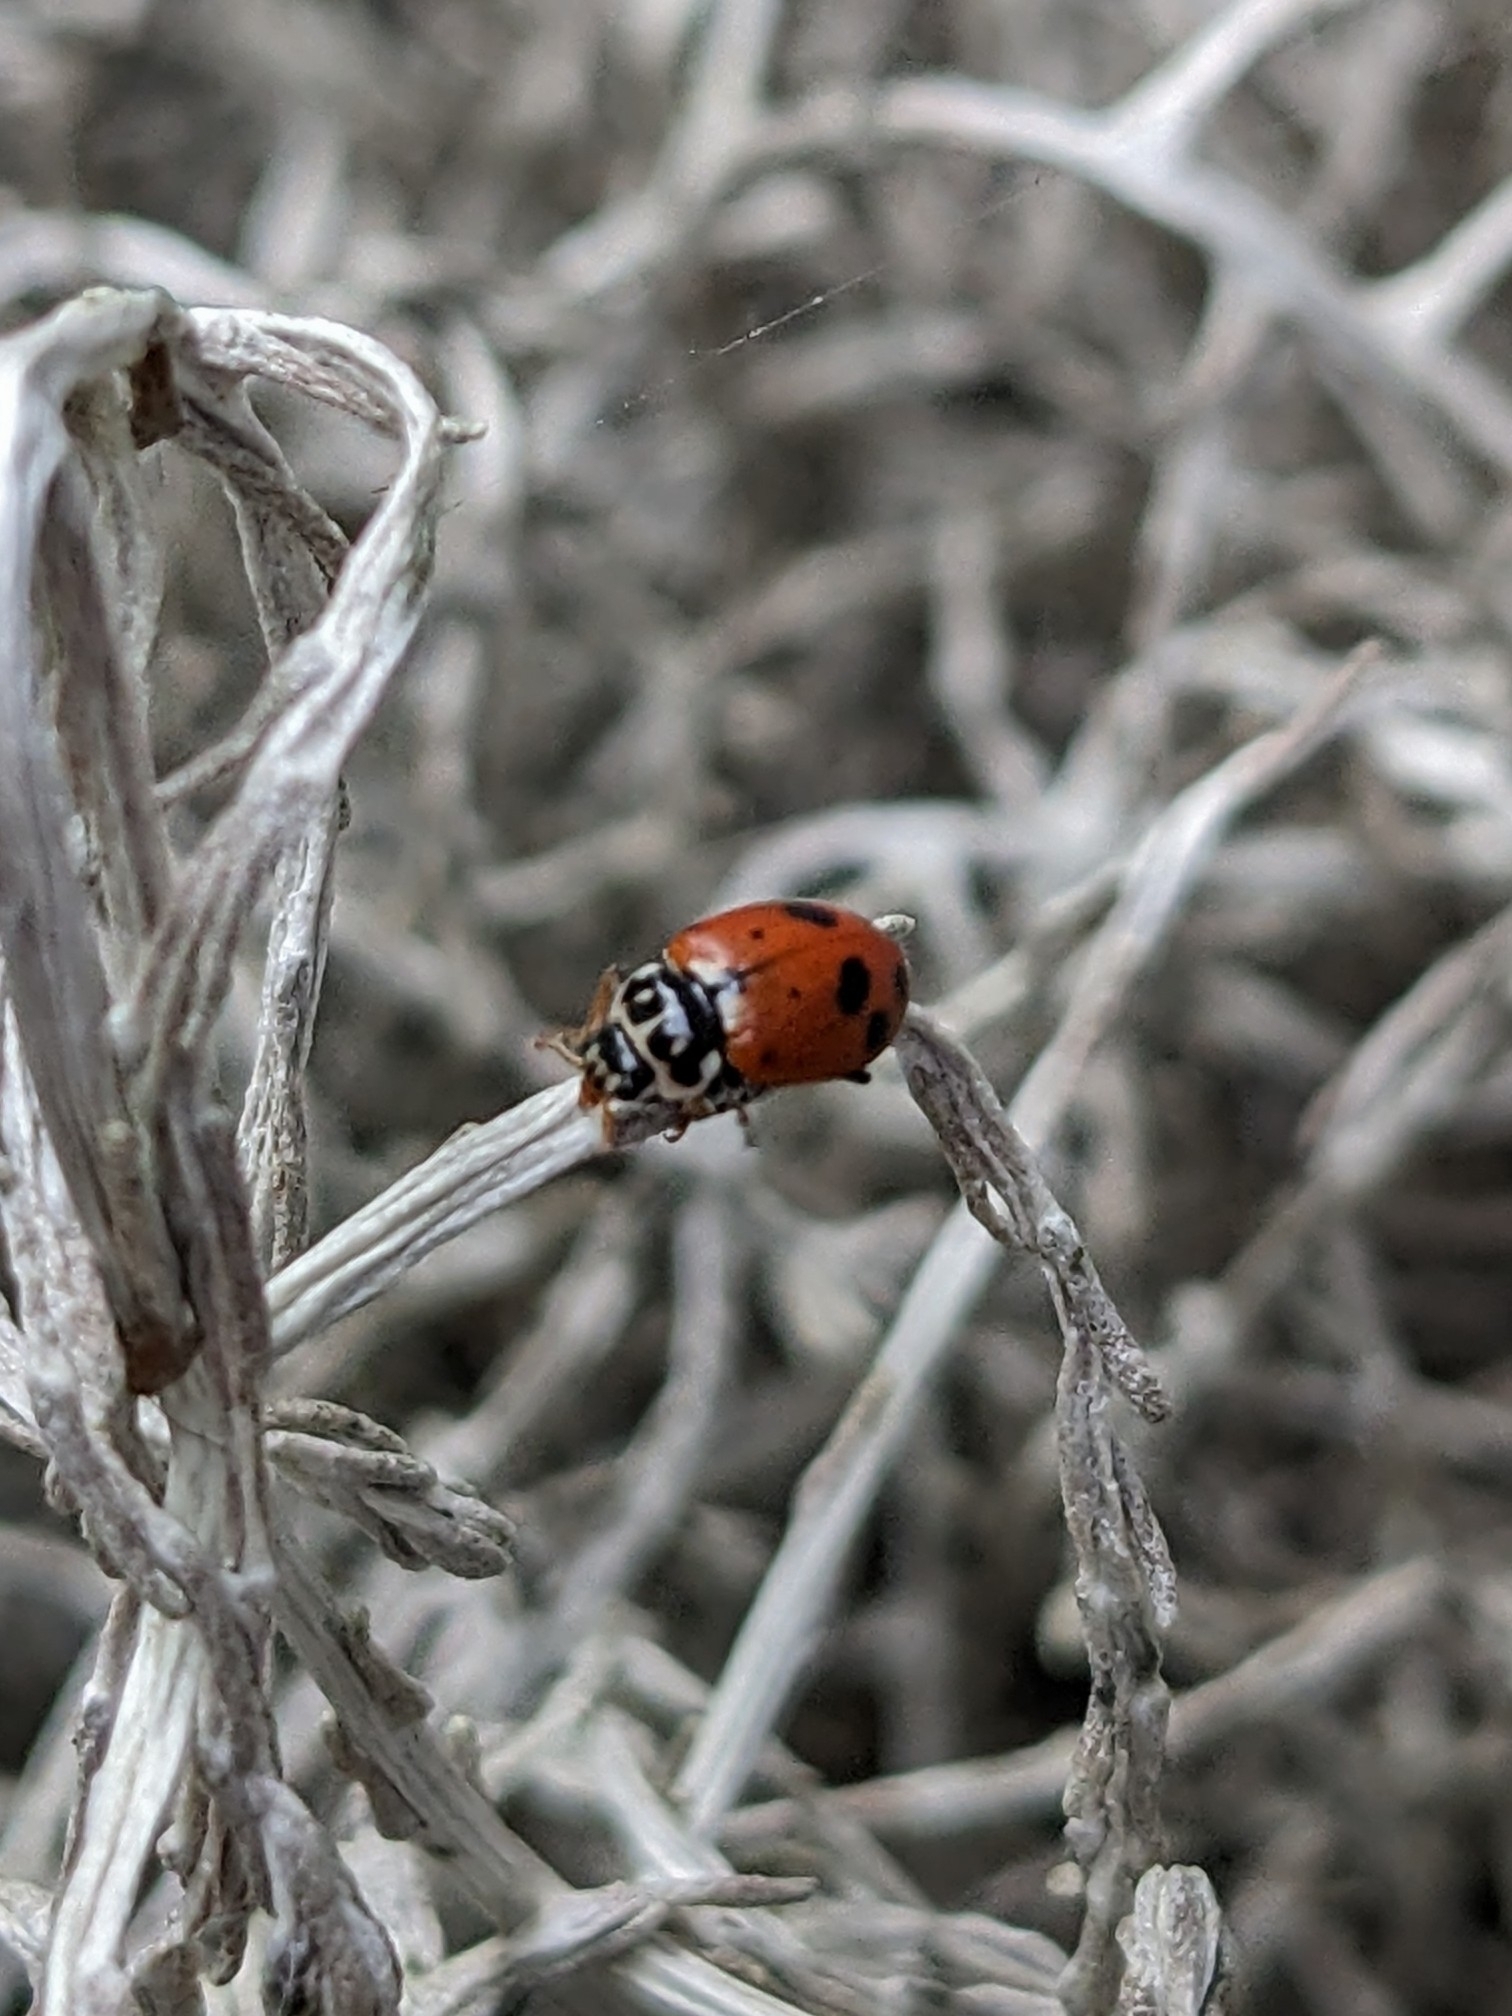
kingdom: Animalia
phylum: Arthropoda
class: Insecta
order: Coleoptera
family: Coccinellidae
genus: Hippodamia
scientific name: Hippodamia variegata
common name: Ladybird beetle
